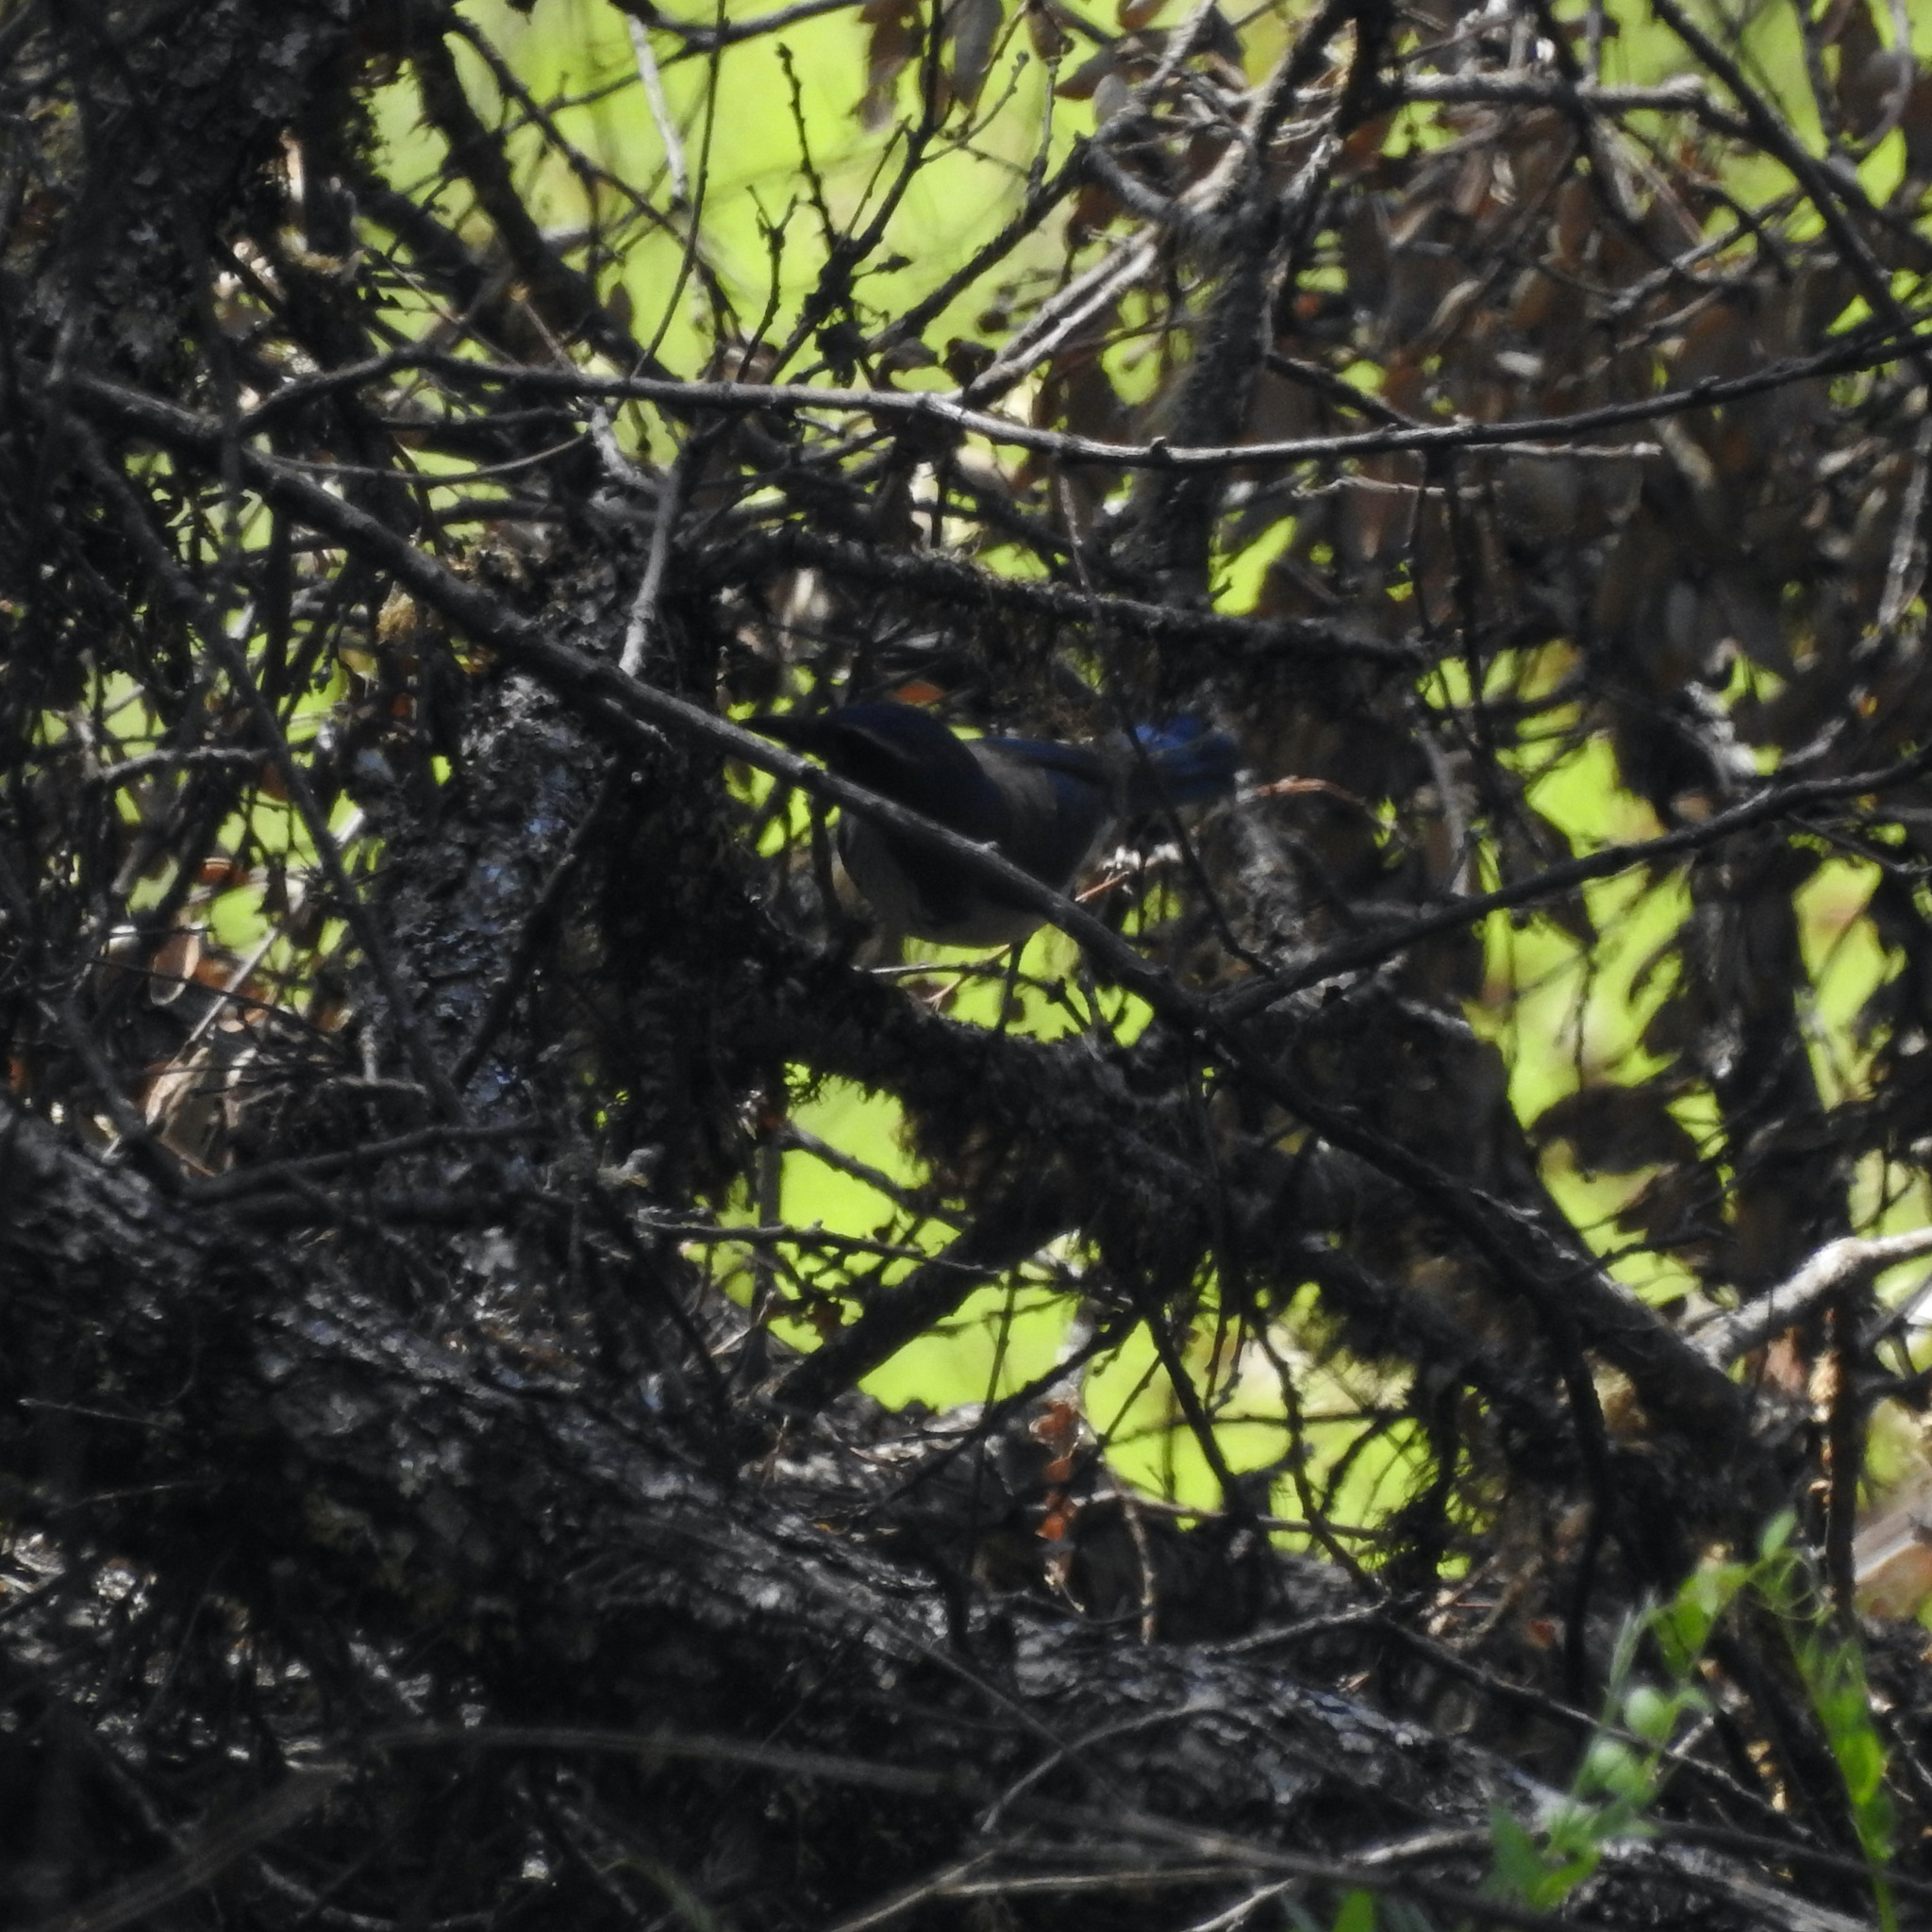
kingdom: Animalia
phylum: Chordata
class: Aves
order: Passeriformes
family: Corvidae
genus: Aphelocoma
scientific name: Aphelocoma californica
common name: California scrub-jay
